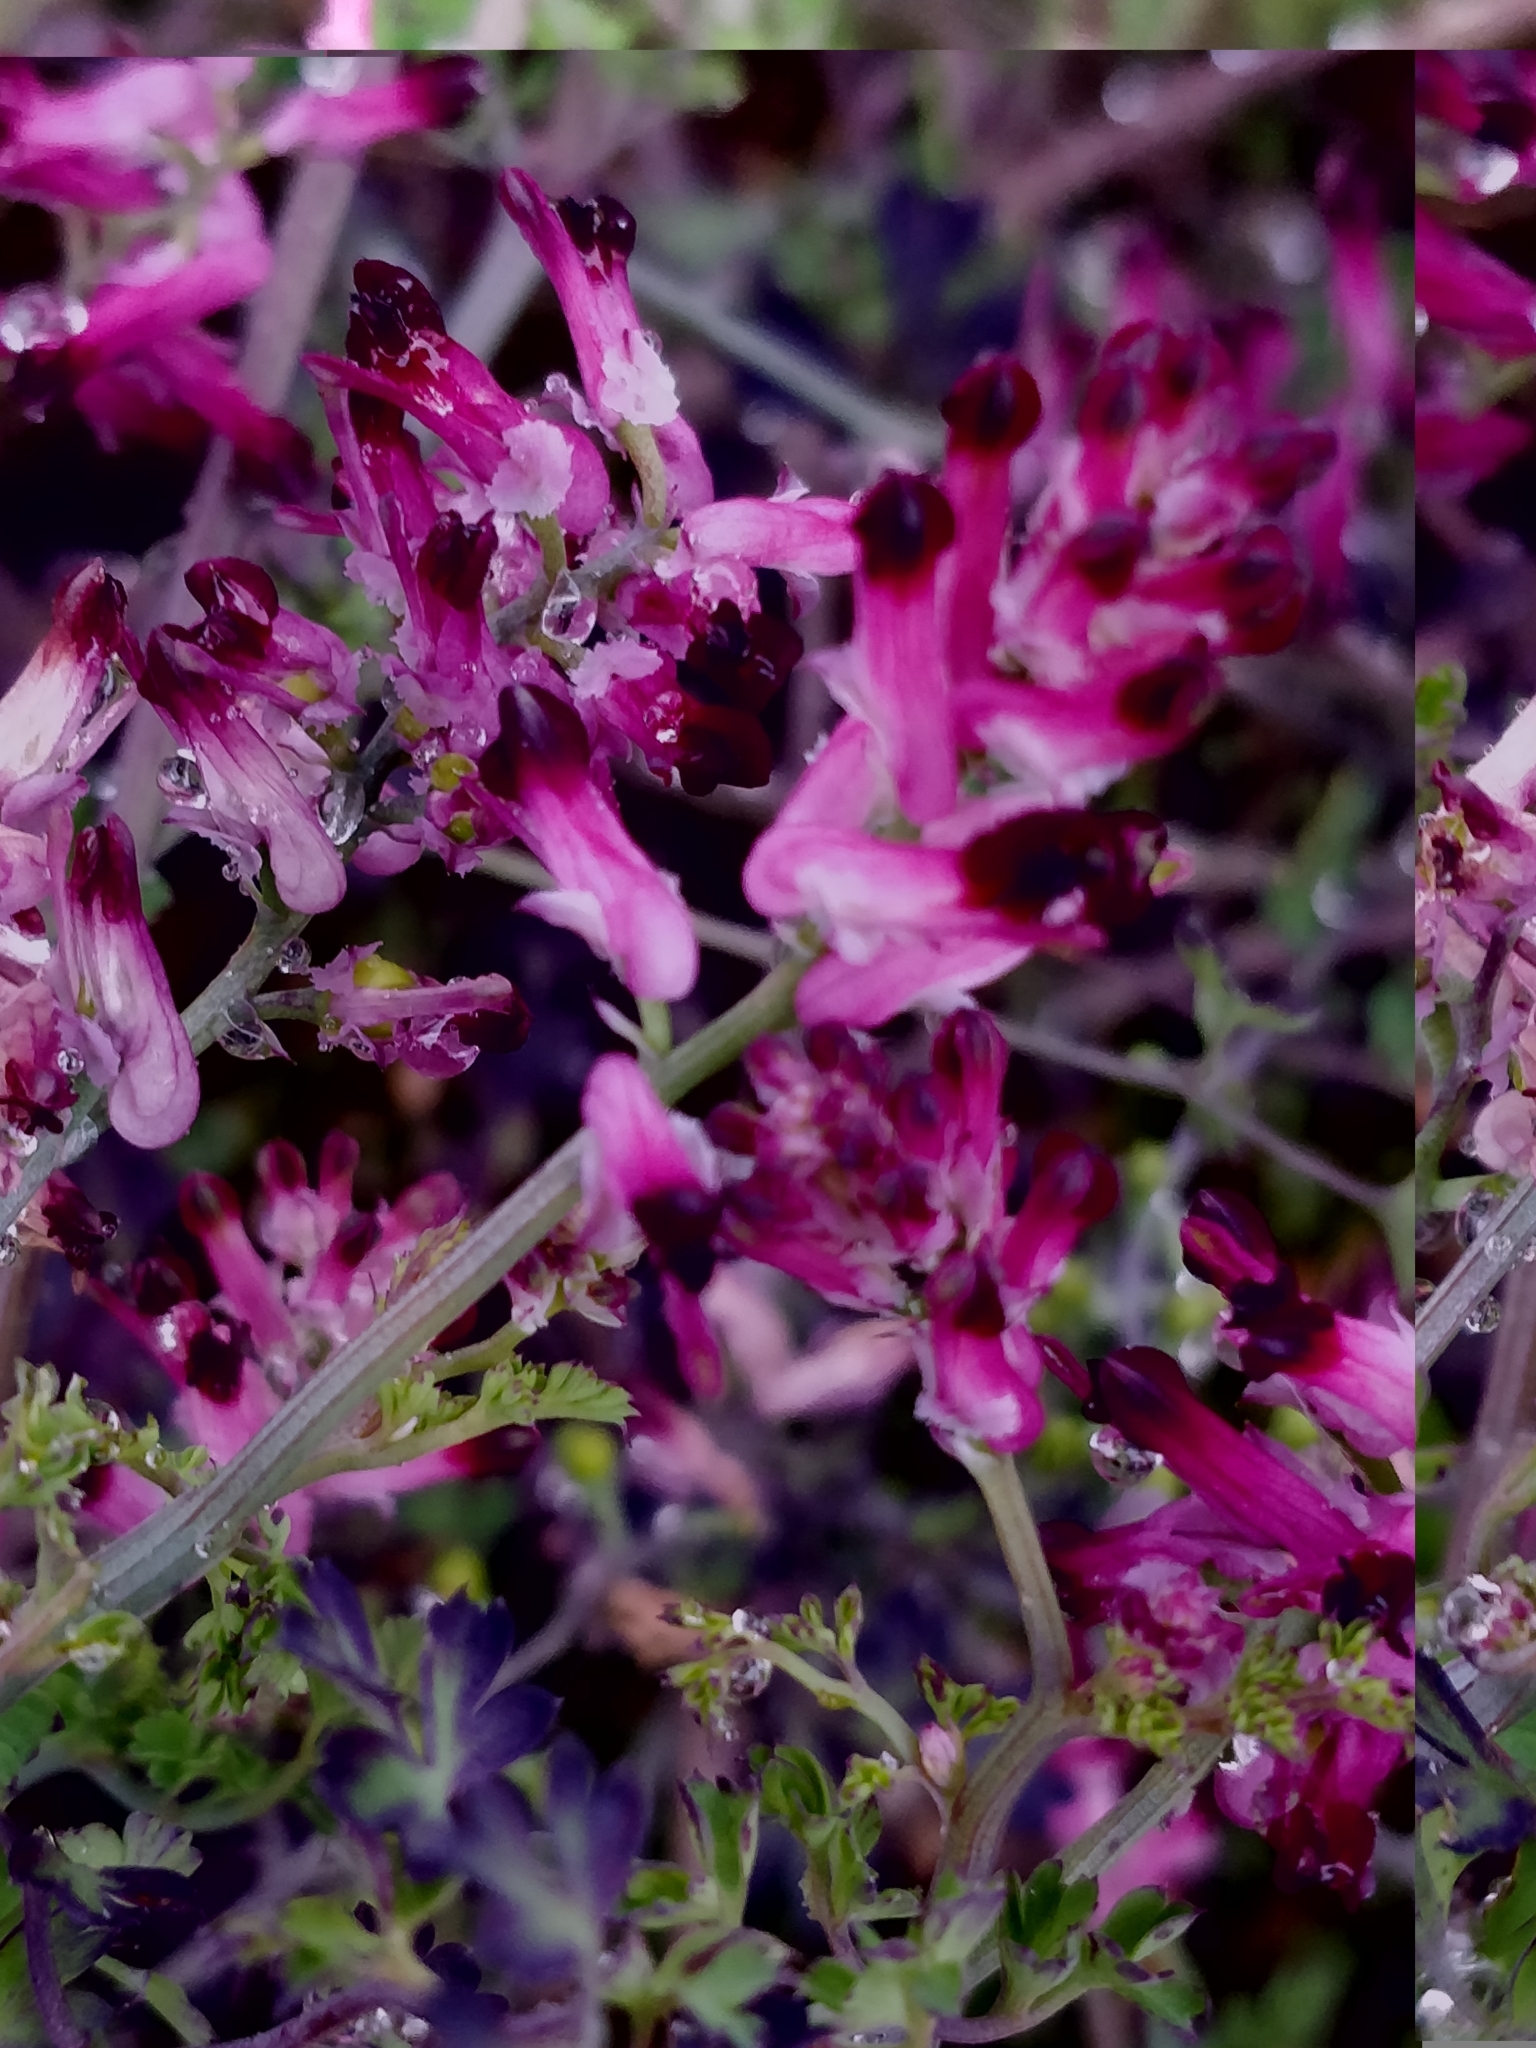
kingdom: Plantae
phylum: Tracheophyta
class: Magnoliopsida
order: Ranunculales
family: Papaveraceae
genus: Fumaria
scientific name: Fumaria officinalis
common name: Common fumitory
